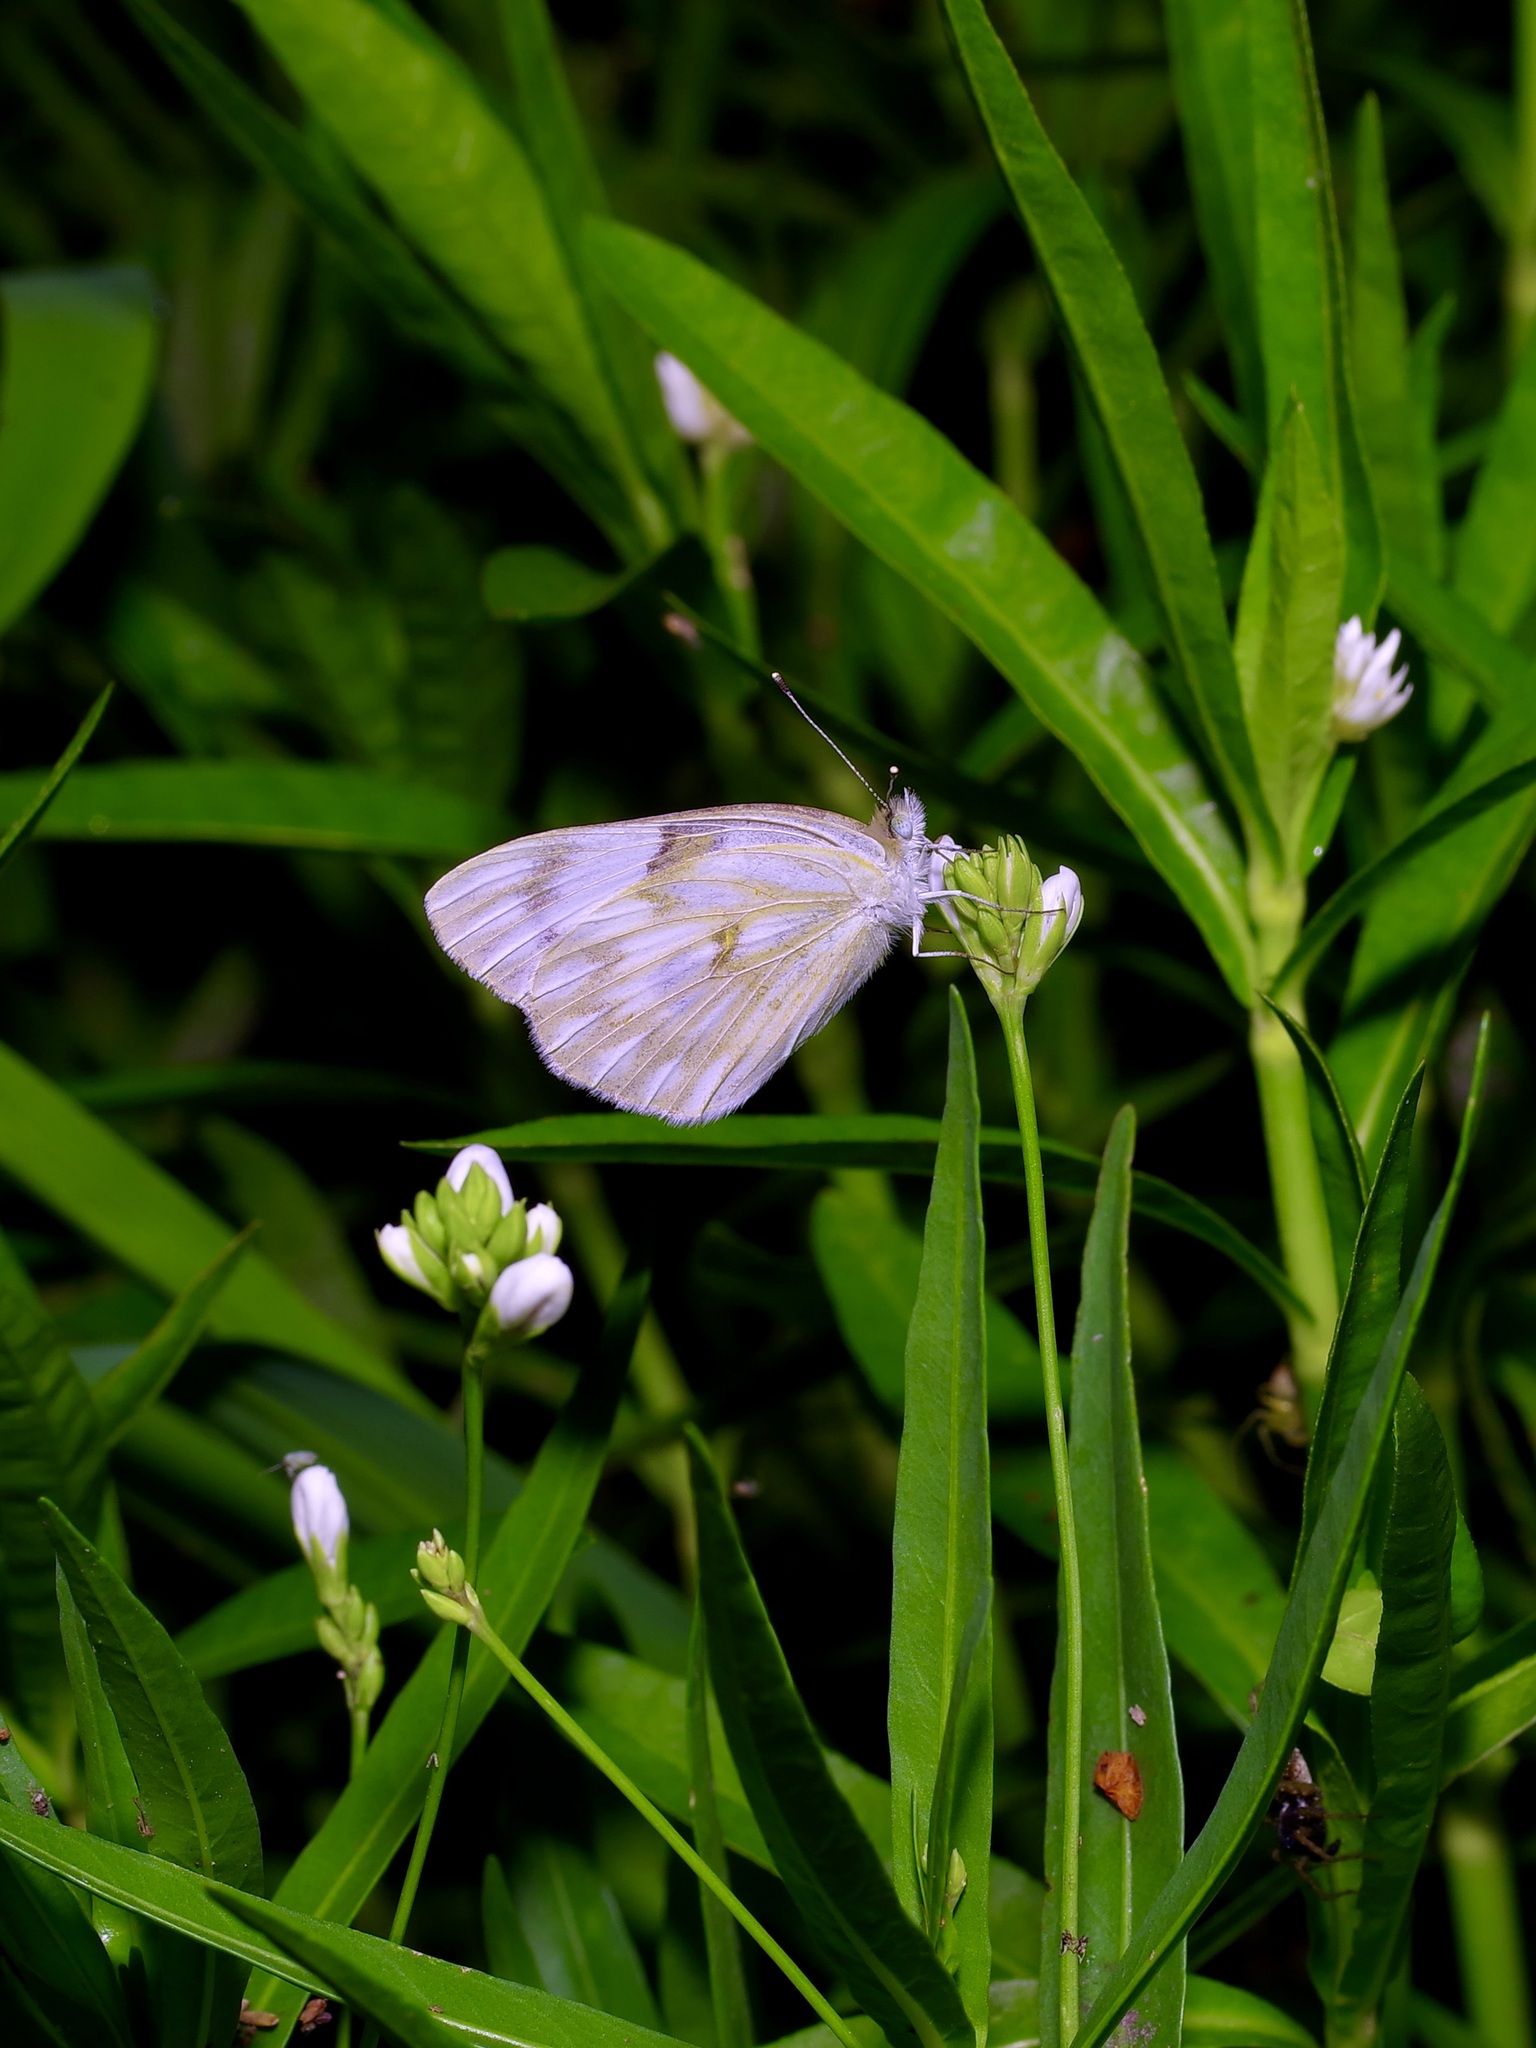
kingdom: Animalia
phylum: Arthropoda
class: Insecta
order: Lepidoptera
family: Pieridae
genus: Pontia
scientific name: Pontia protodice
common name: Checkered white
